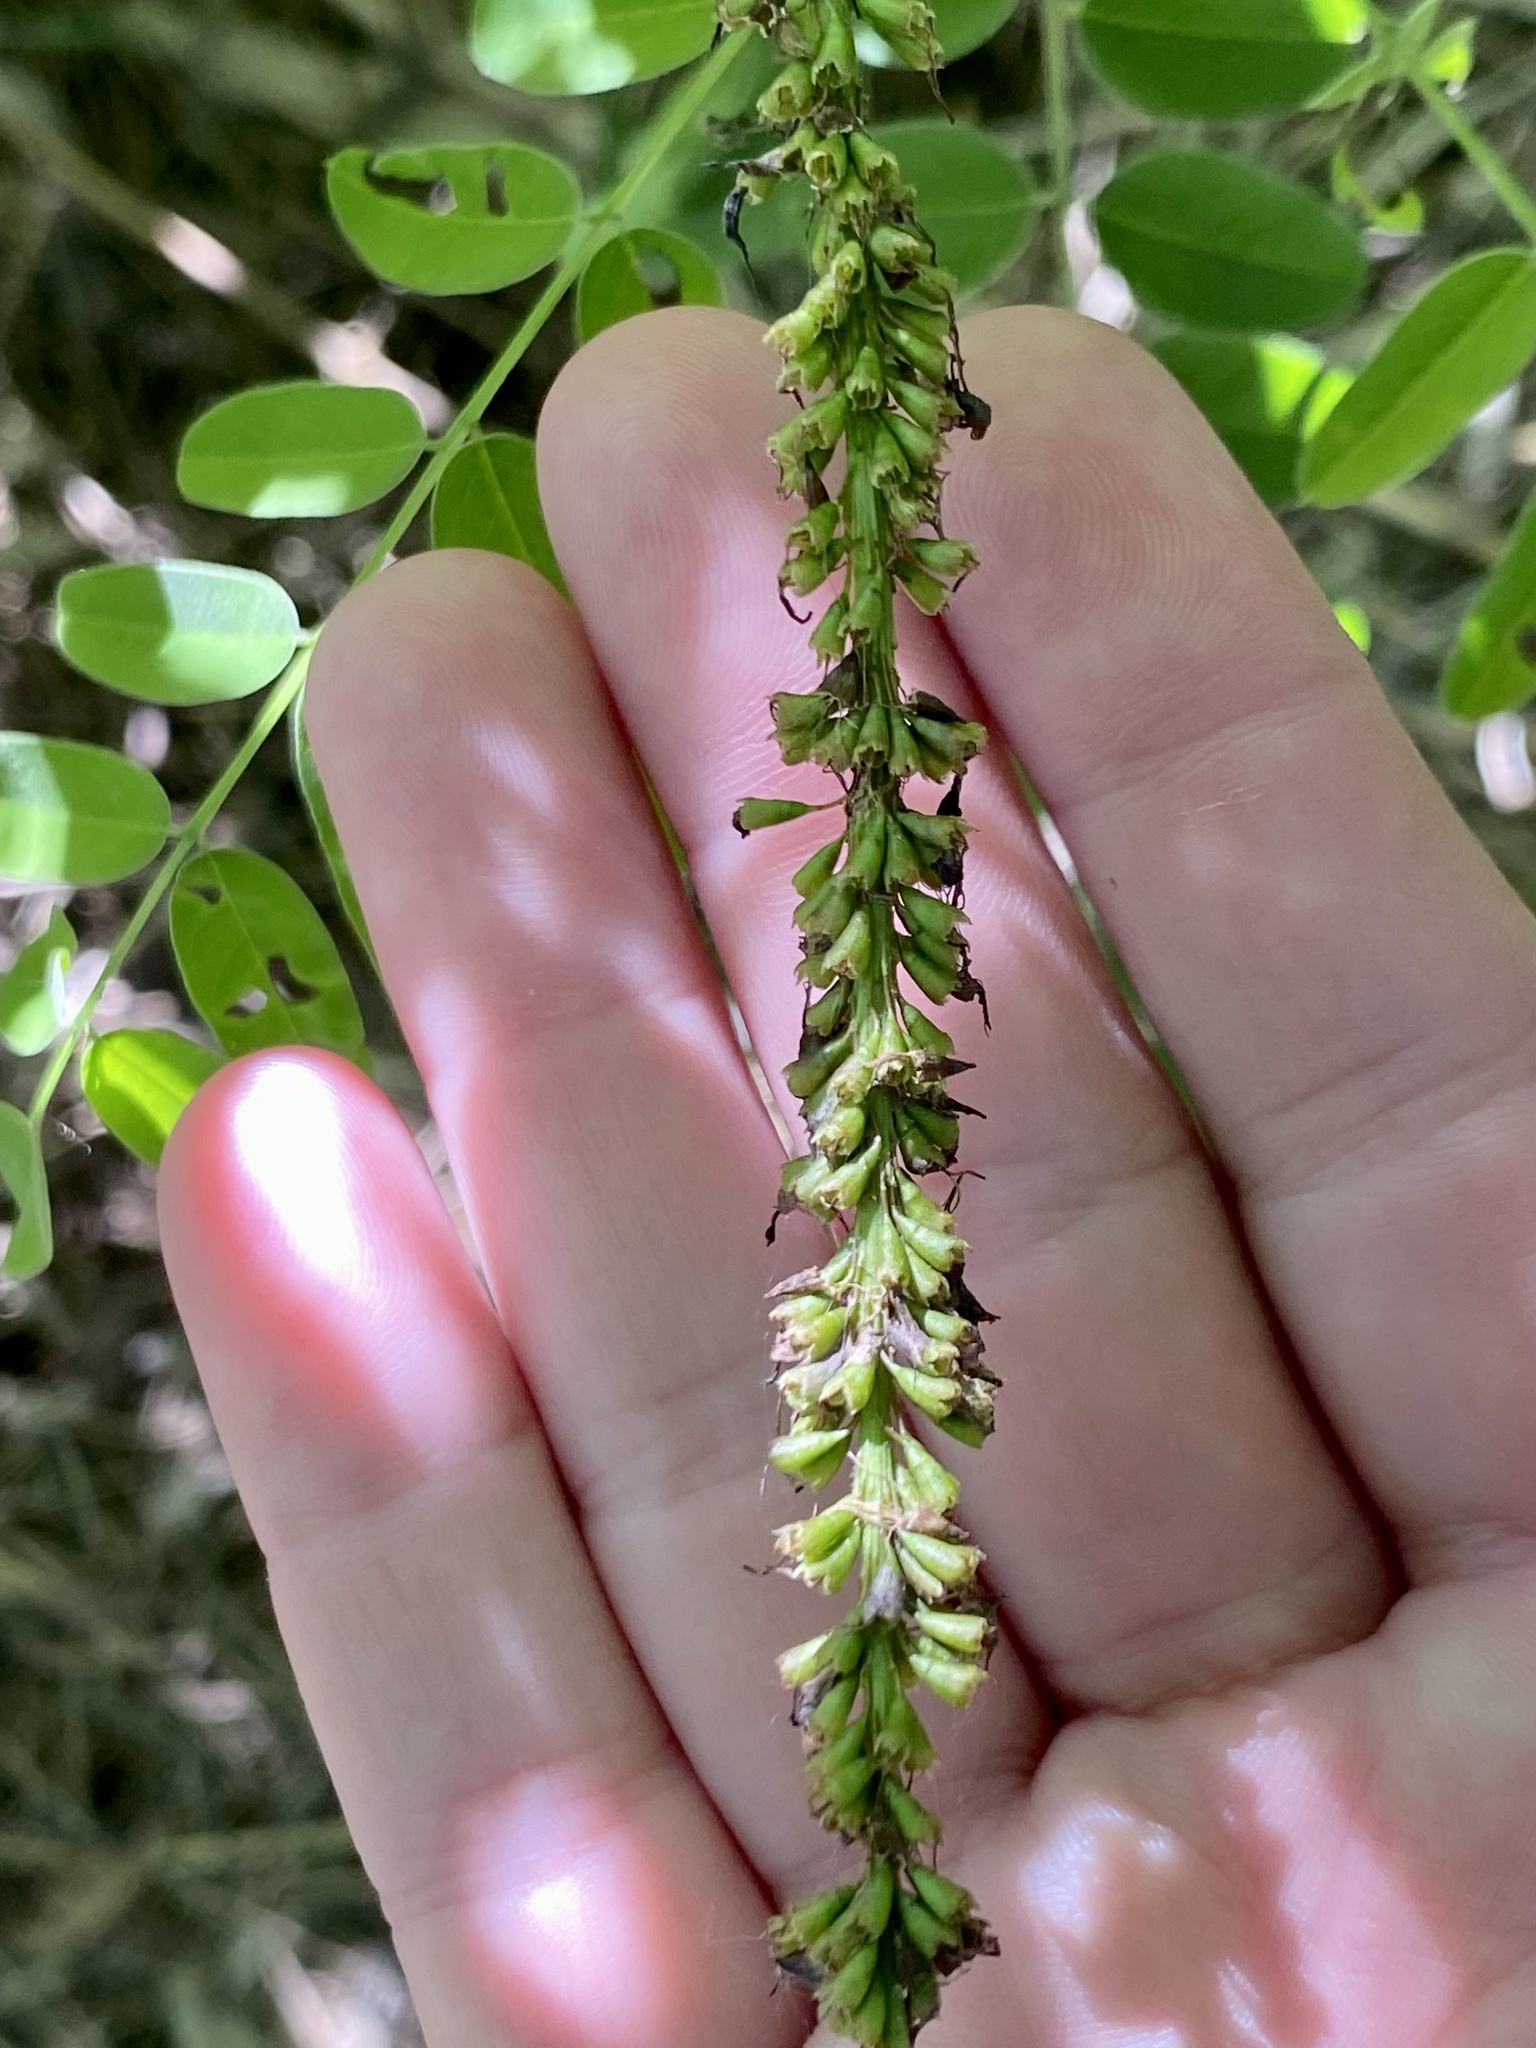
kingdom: Plantae
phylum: Tracheophyta
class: Magnoliopsida
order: Fabales
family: Fabaceae
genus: Amorpha
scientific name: Amorpha fruticosa
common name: False indigo
